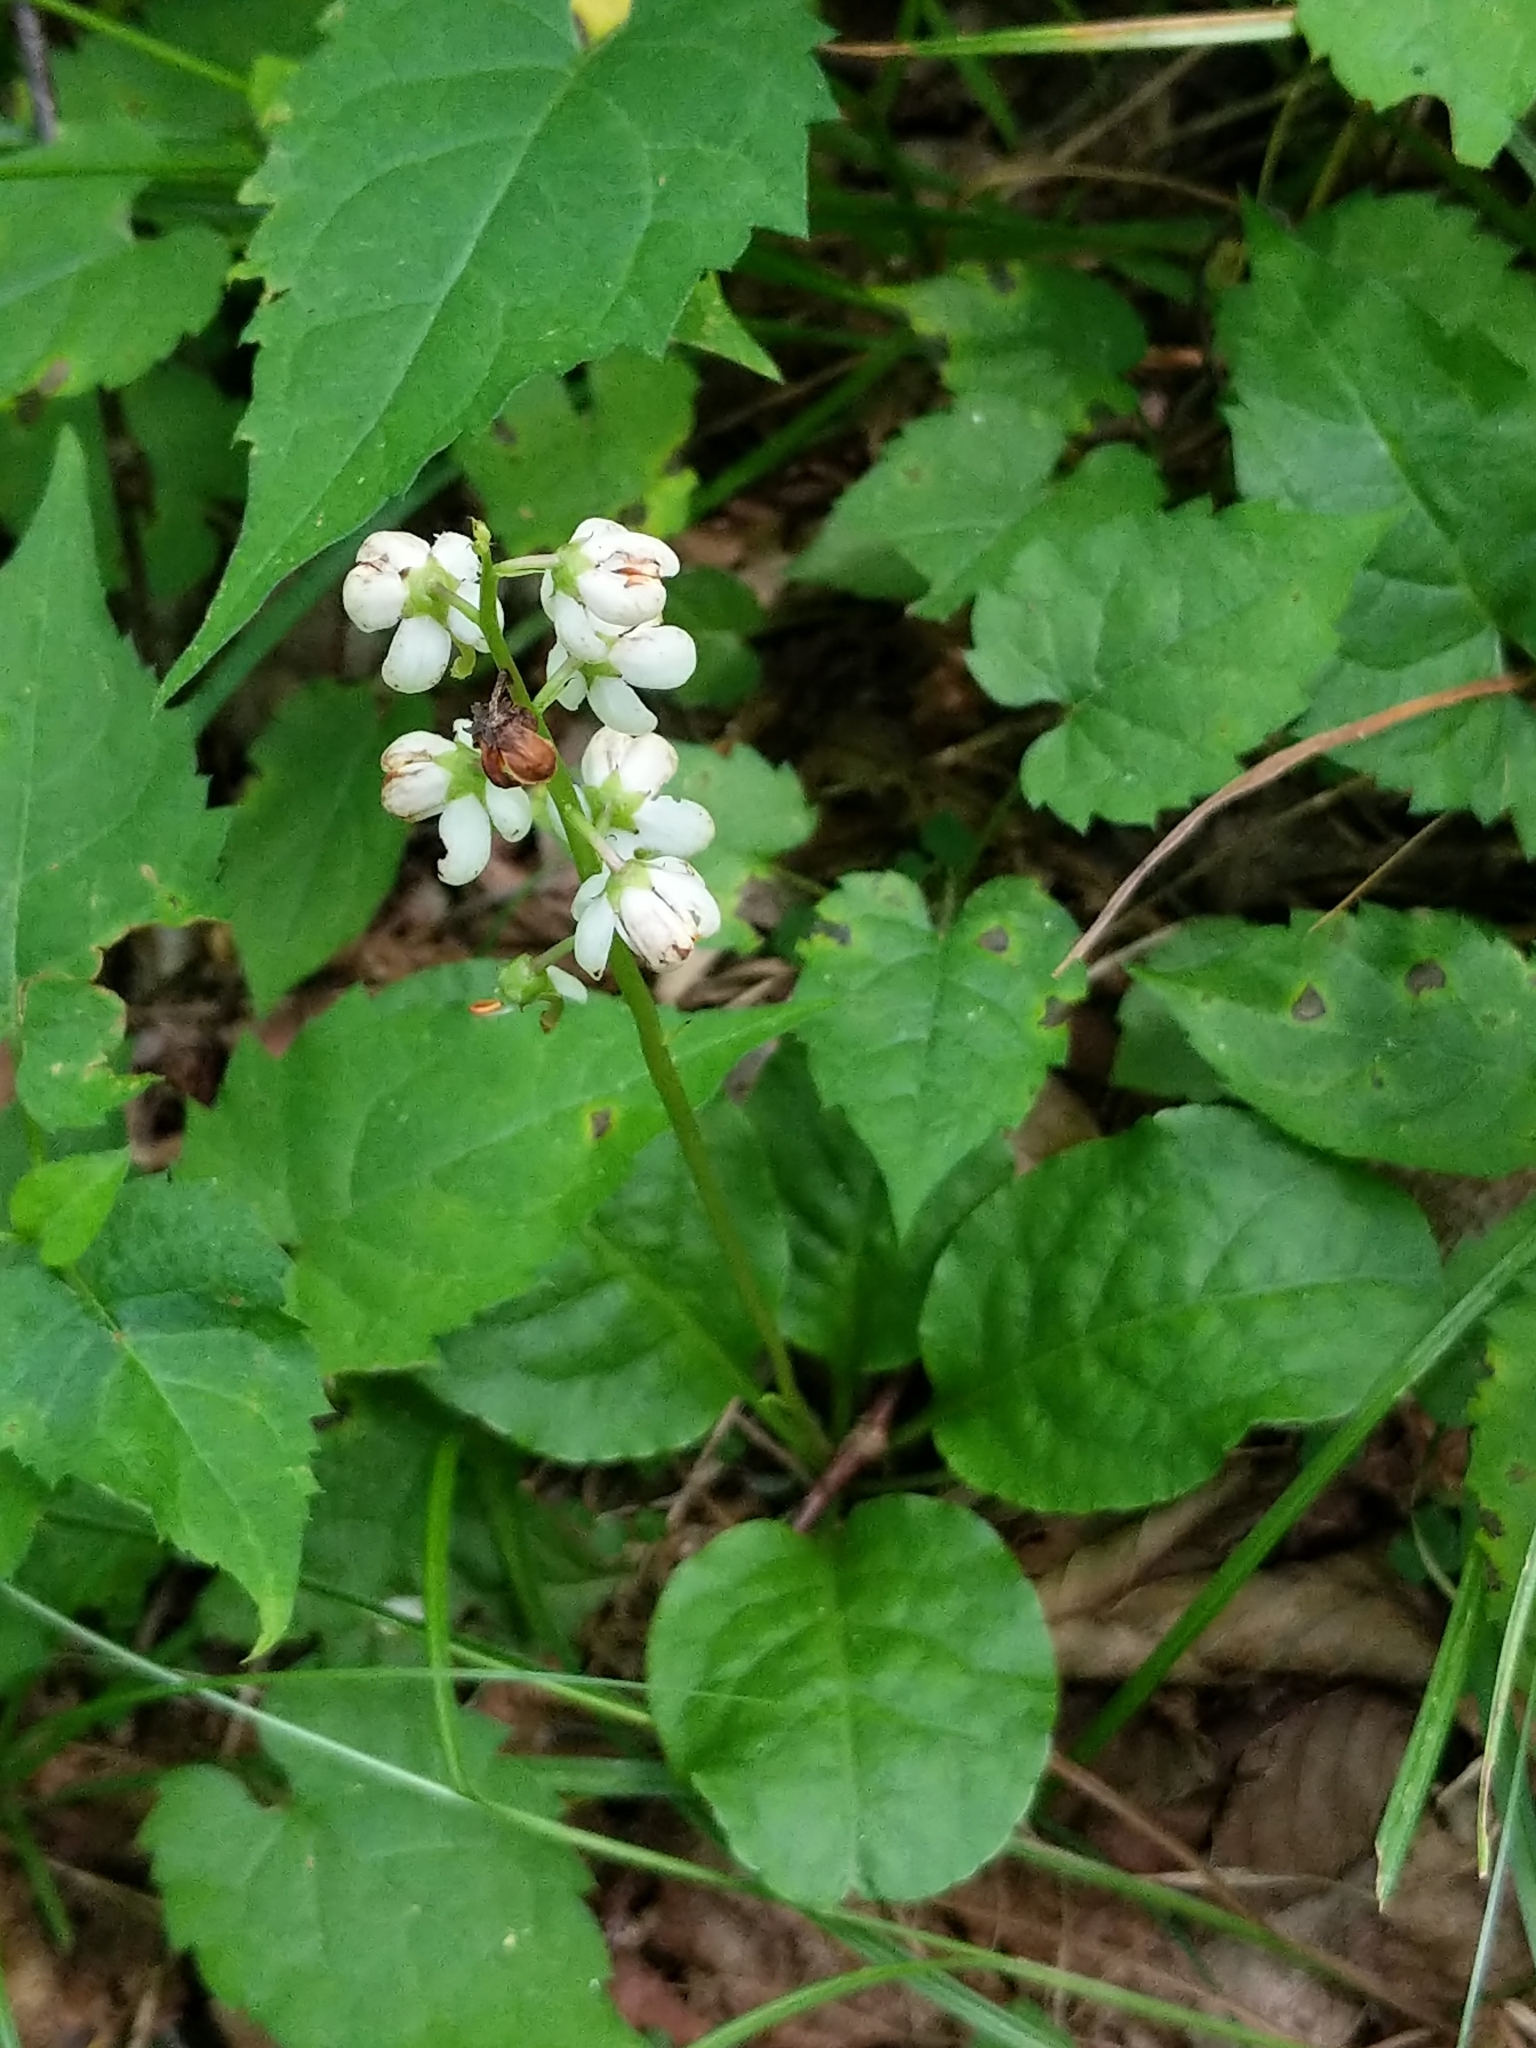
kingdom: Plantae
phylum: Tracheophyta
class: Magnoliopsida
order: Ericales
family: Ericaceae
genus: Pyrola
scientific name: Pyrola elliptica
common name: Shinleaf
